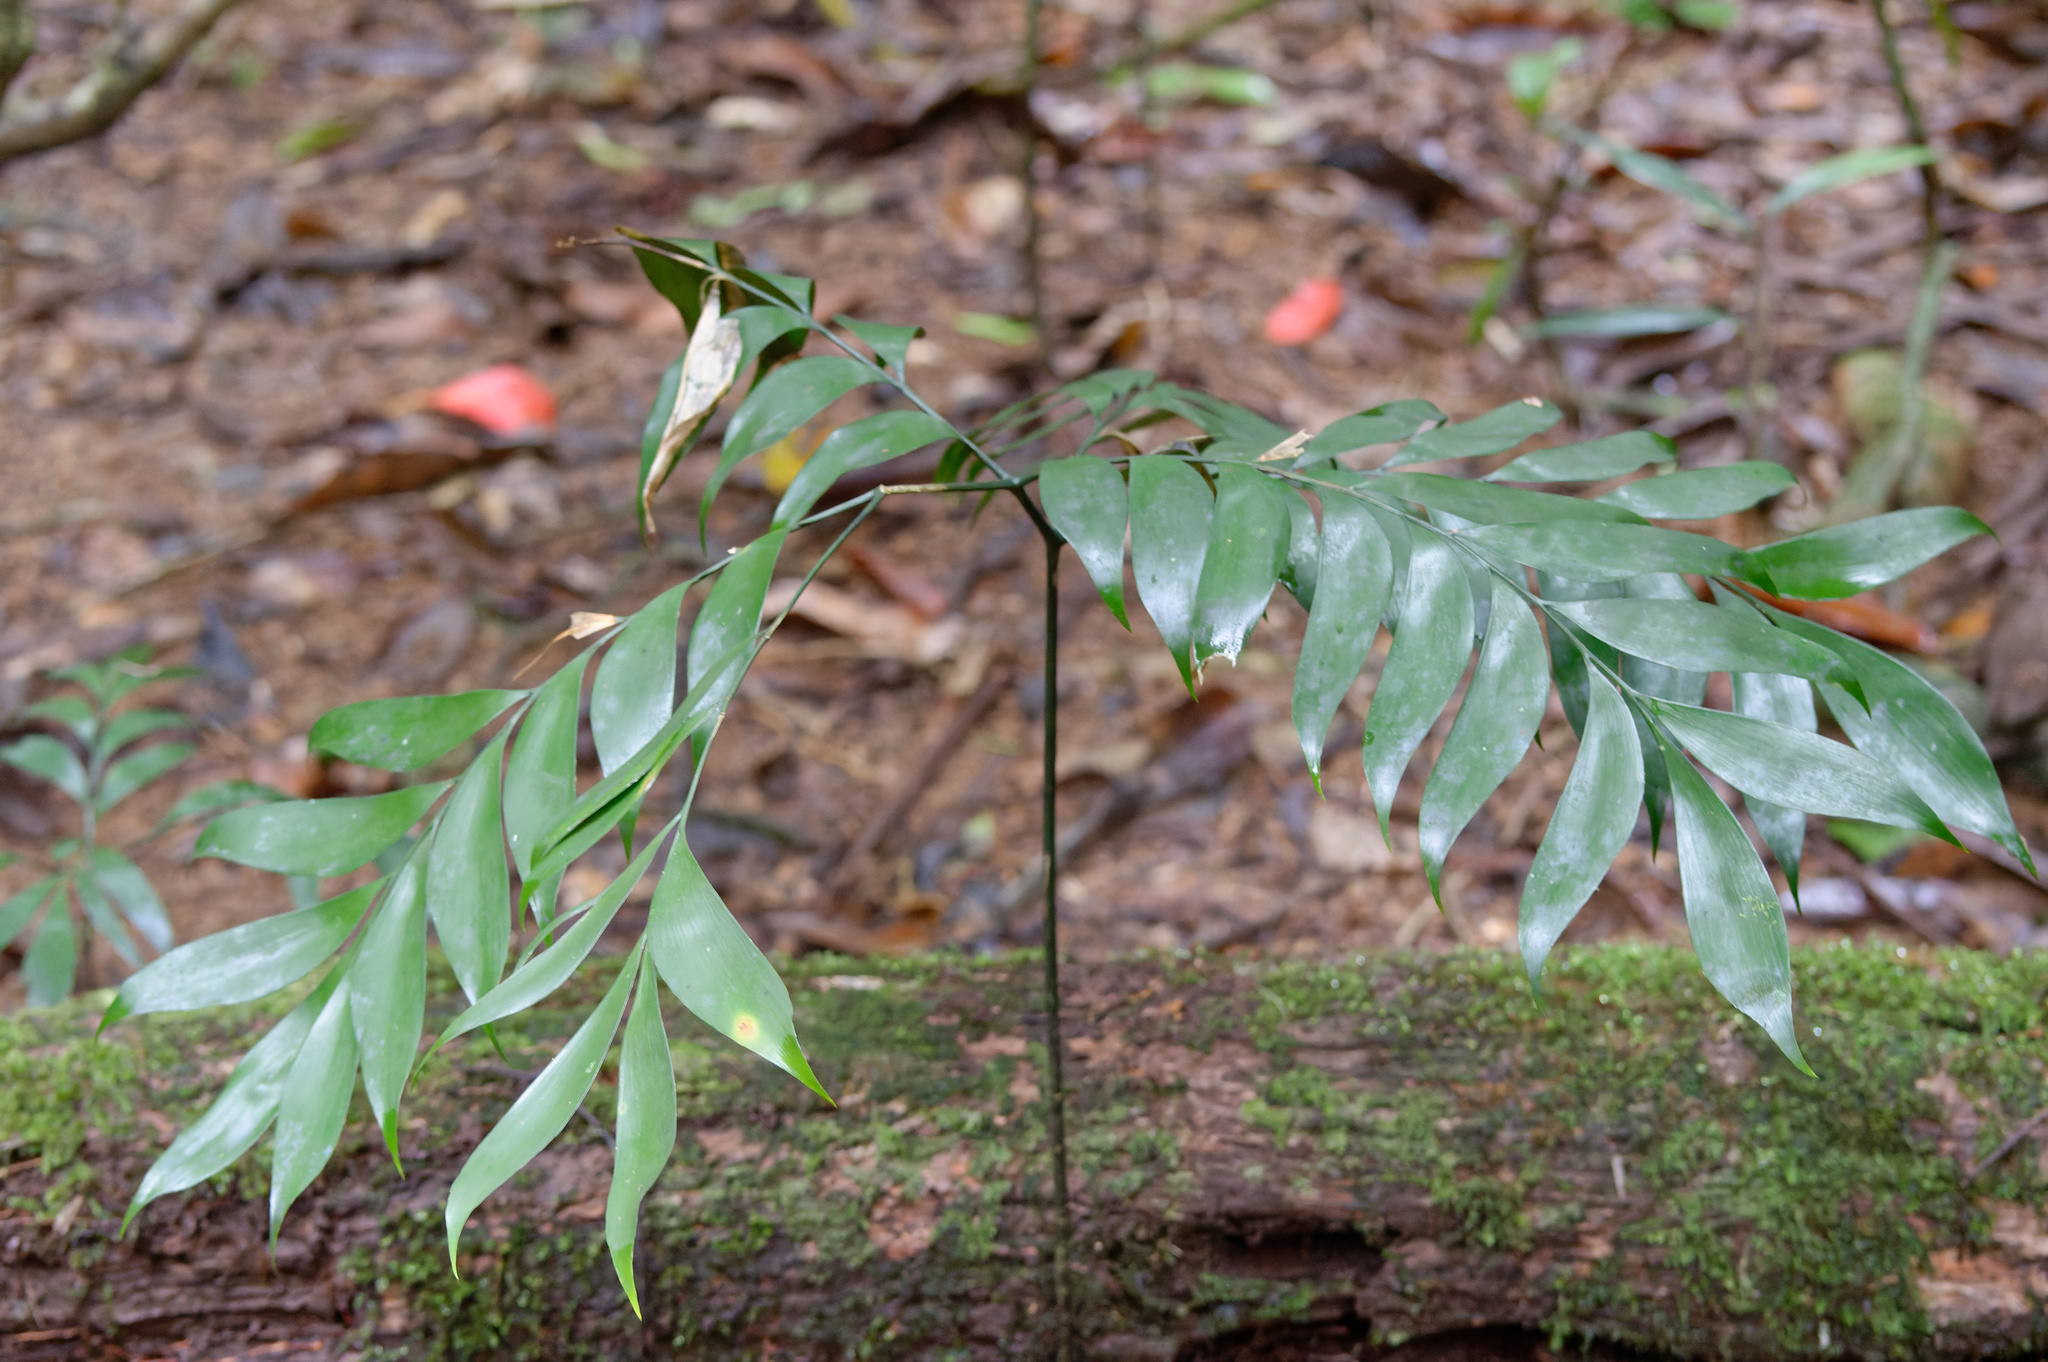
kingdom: Plantae
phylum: Tracheophyta
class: Cycadopsida
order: Cycadales
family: Zamiaceae
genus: Bowenia
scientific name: Bowenia spectabilis
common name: Zamia-fern
